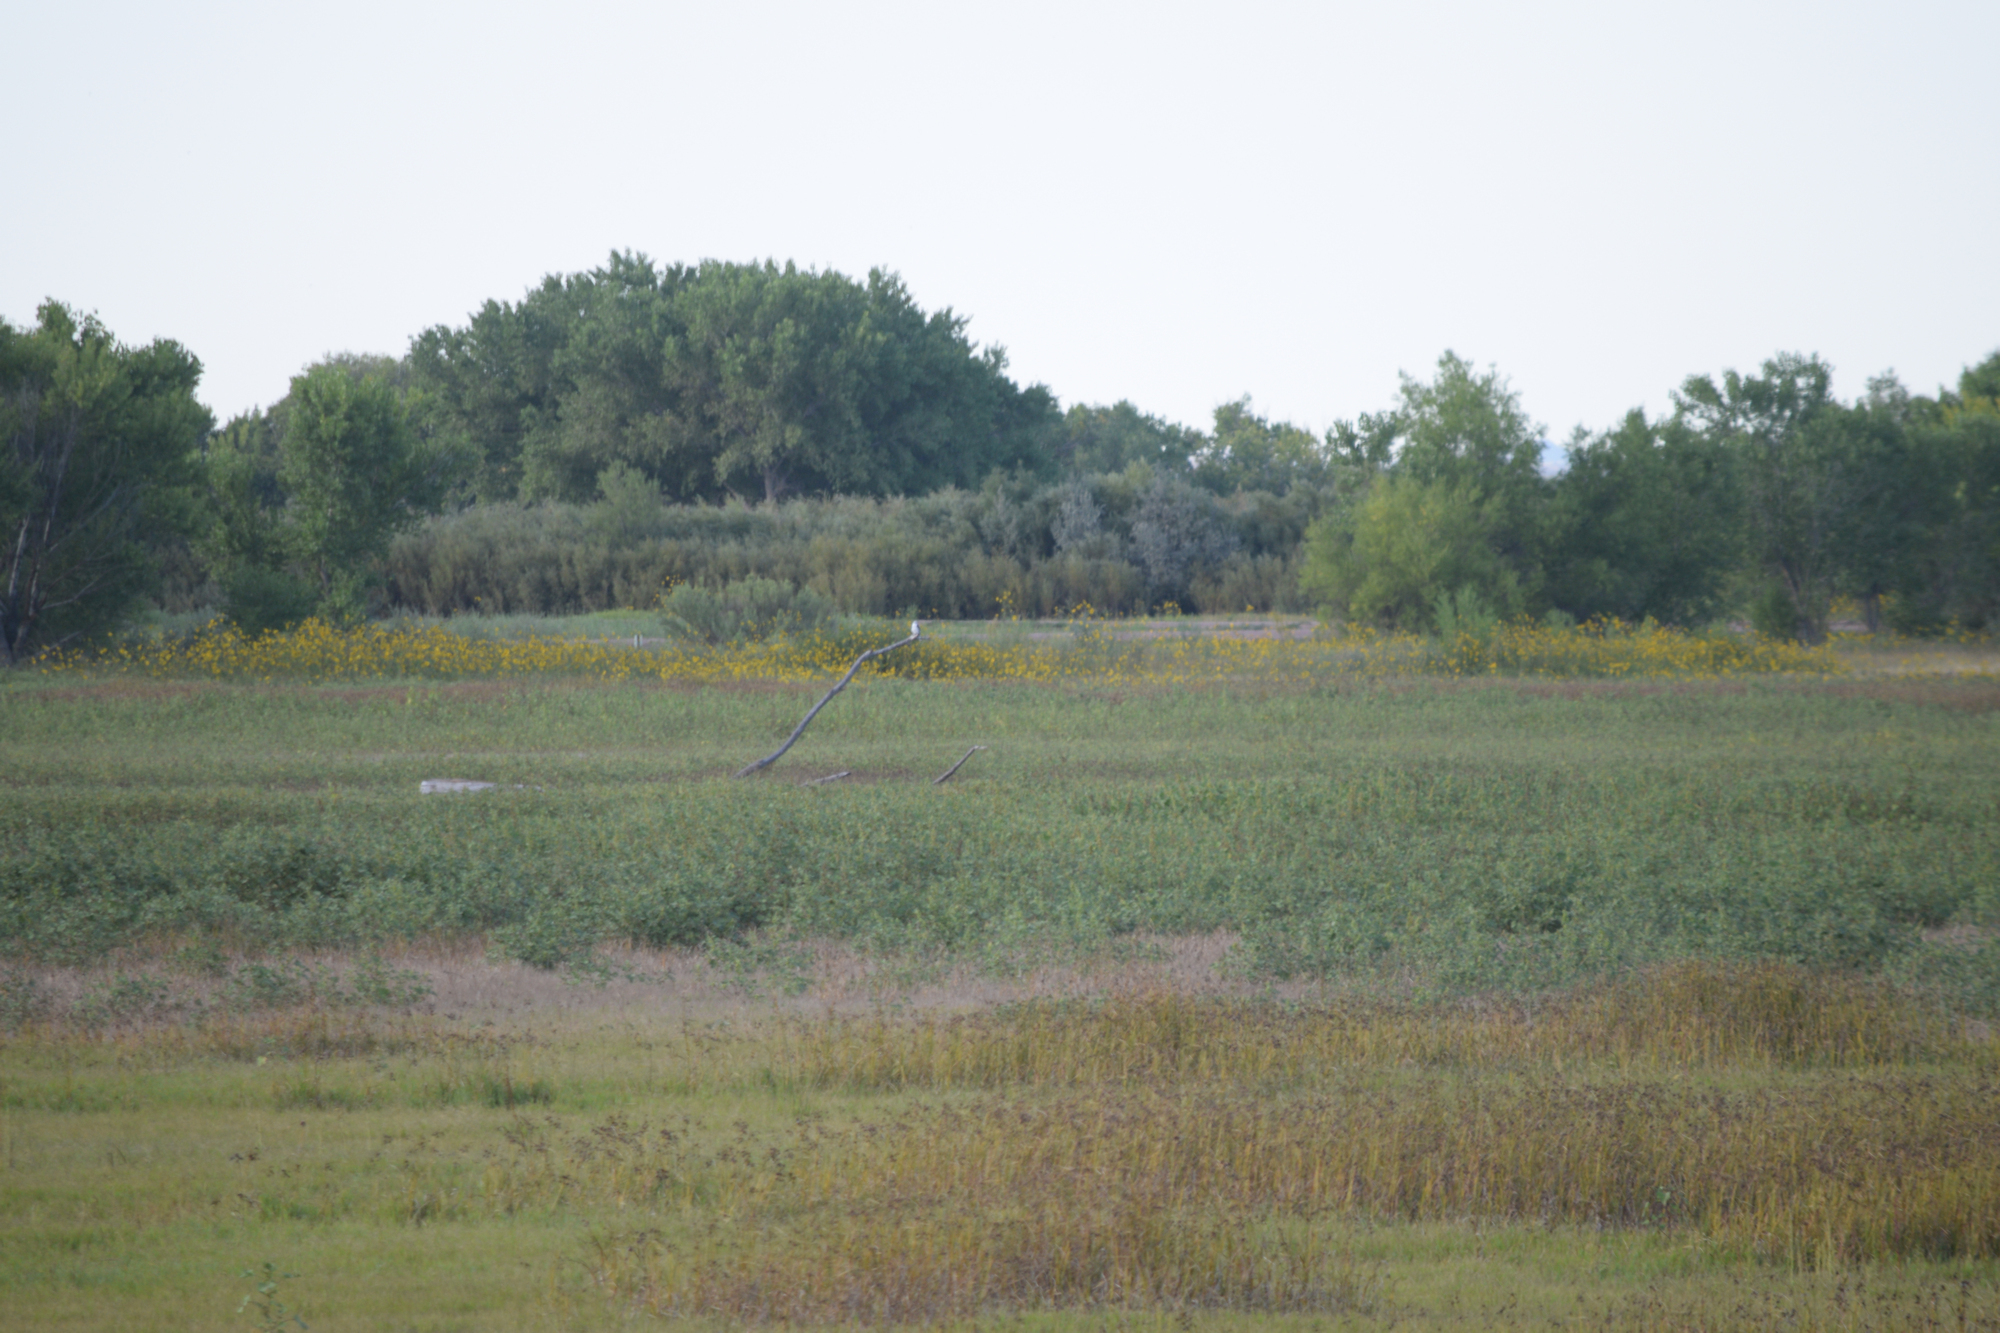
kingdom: Animalia
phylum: Chordata
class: Aves
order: Accipitriformes
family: Accipitridae
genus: Elanus
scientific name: Elanus leucurus
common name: White-tailed kite
